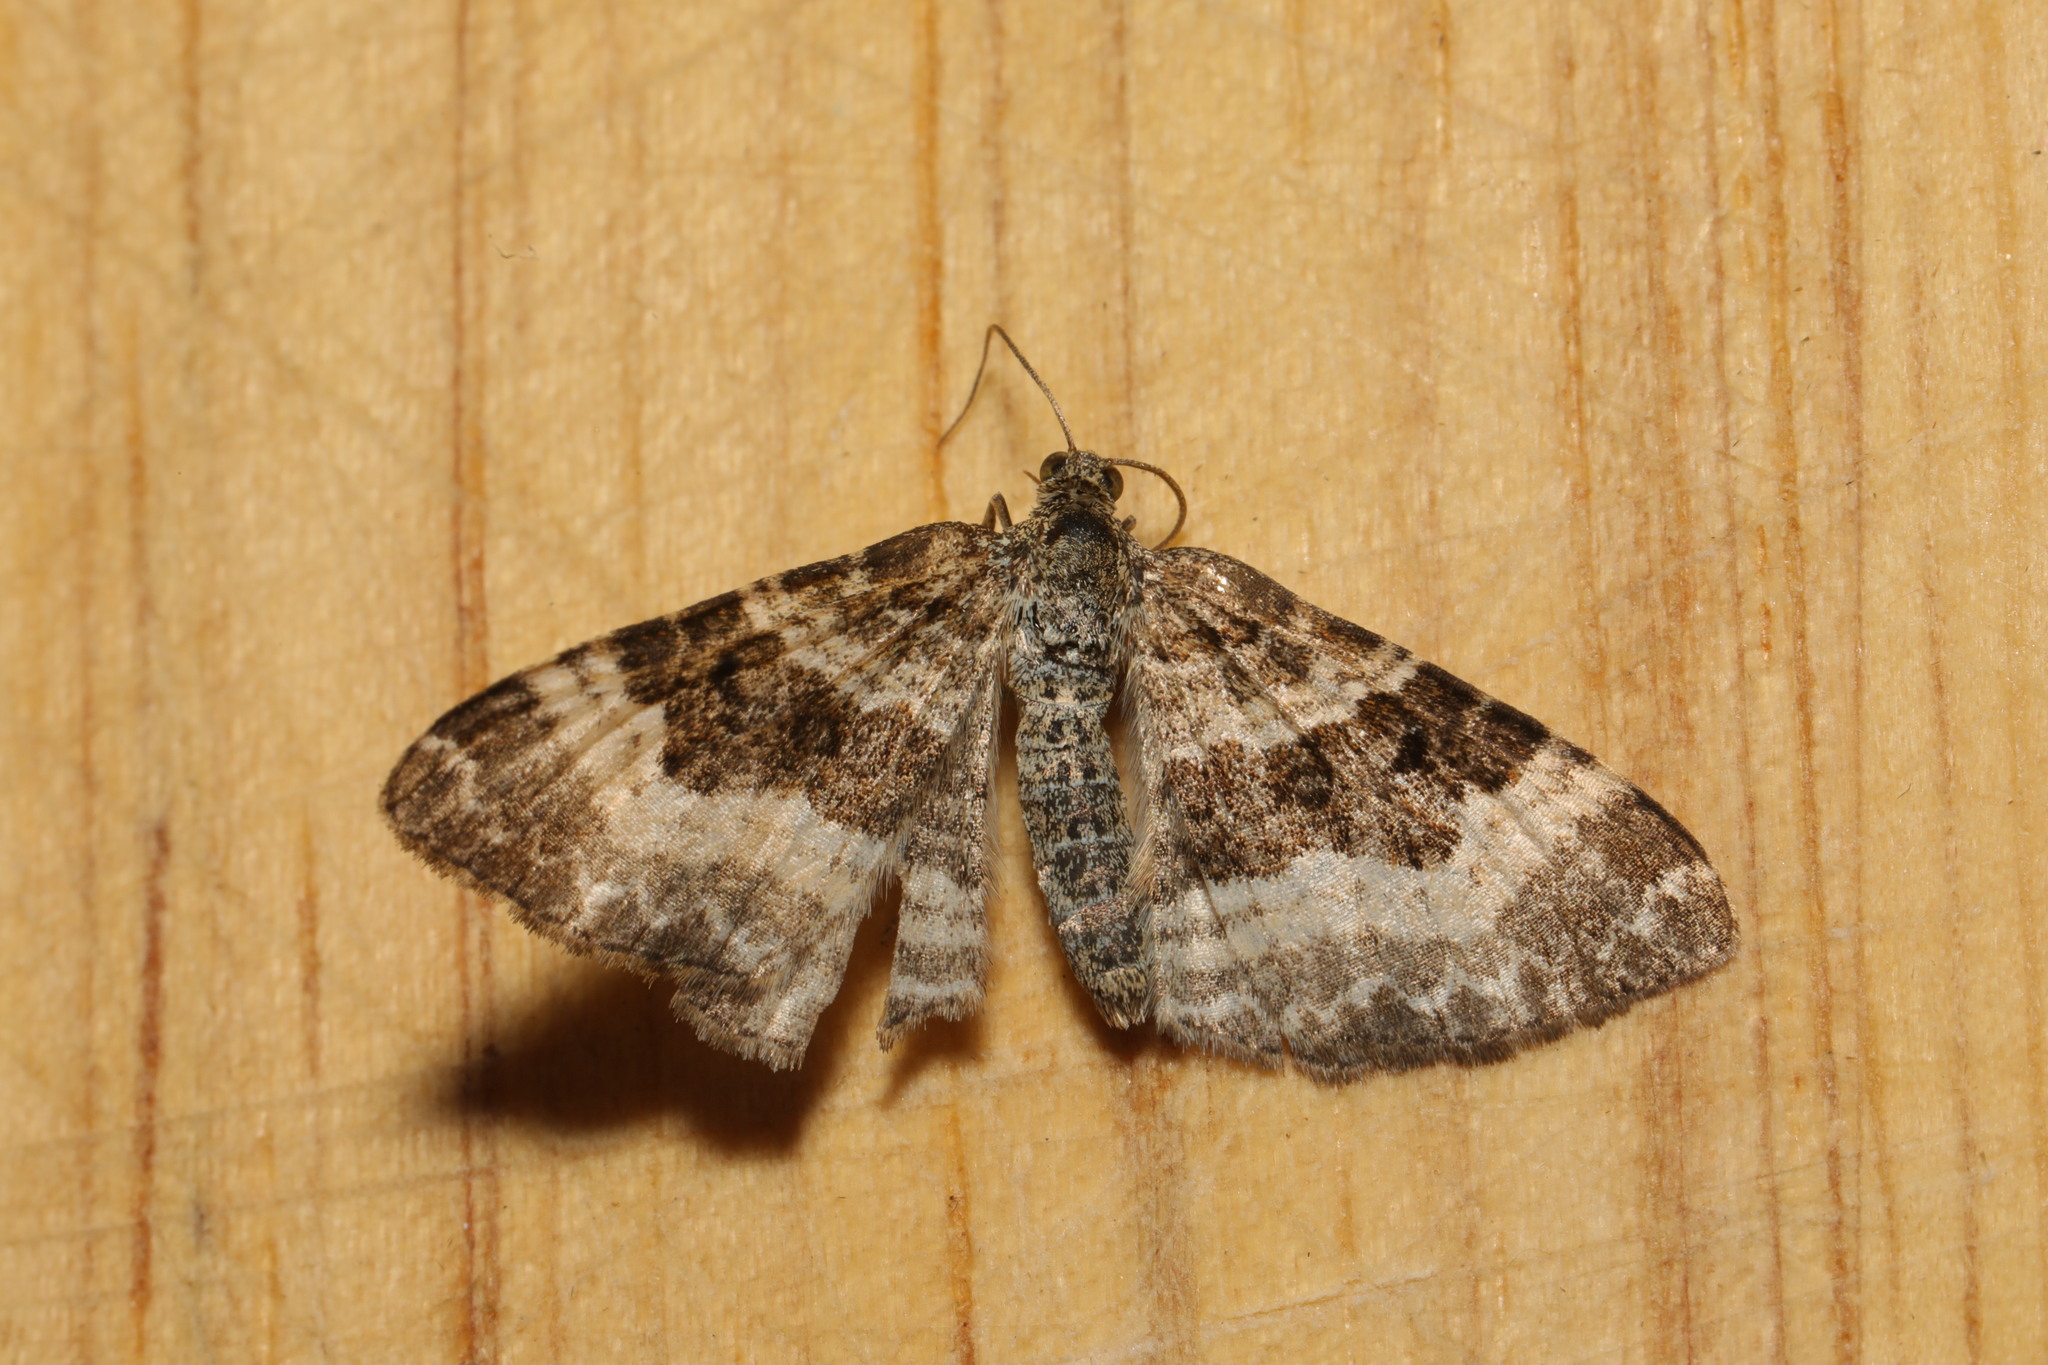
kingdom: Animalia
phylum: Arthropoda
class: Insecta
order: Lepidoptera
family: Geometridae
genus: Epirrhoe
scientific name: Epirrhoe alternata
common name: Common carpet
